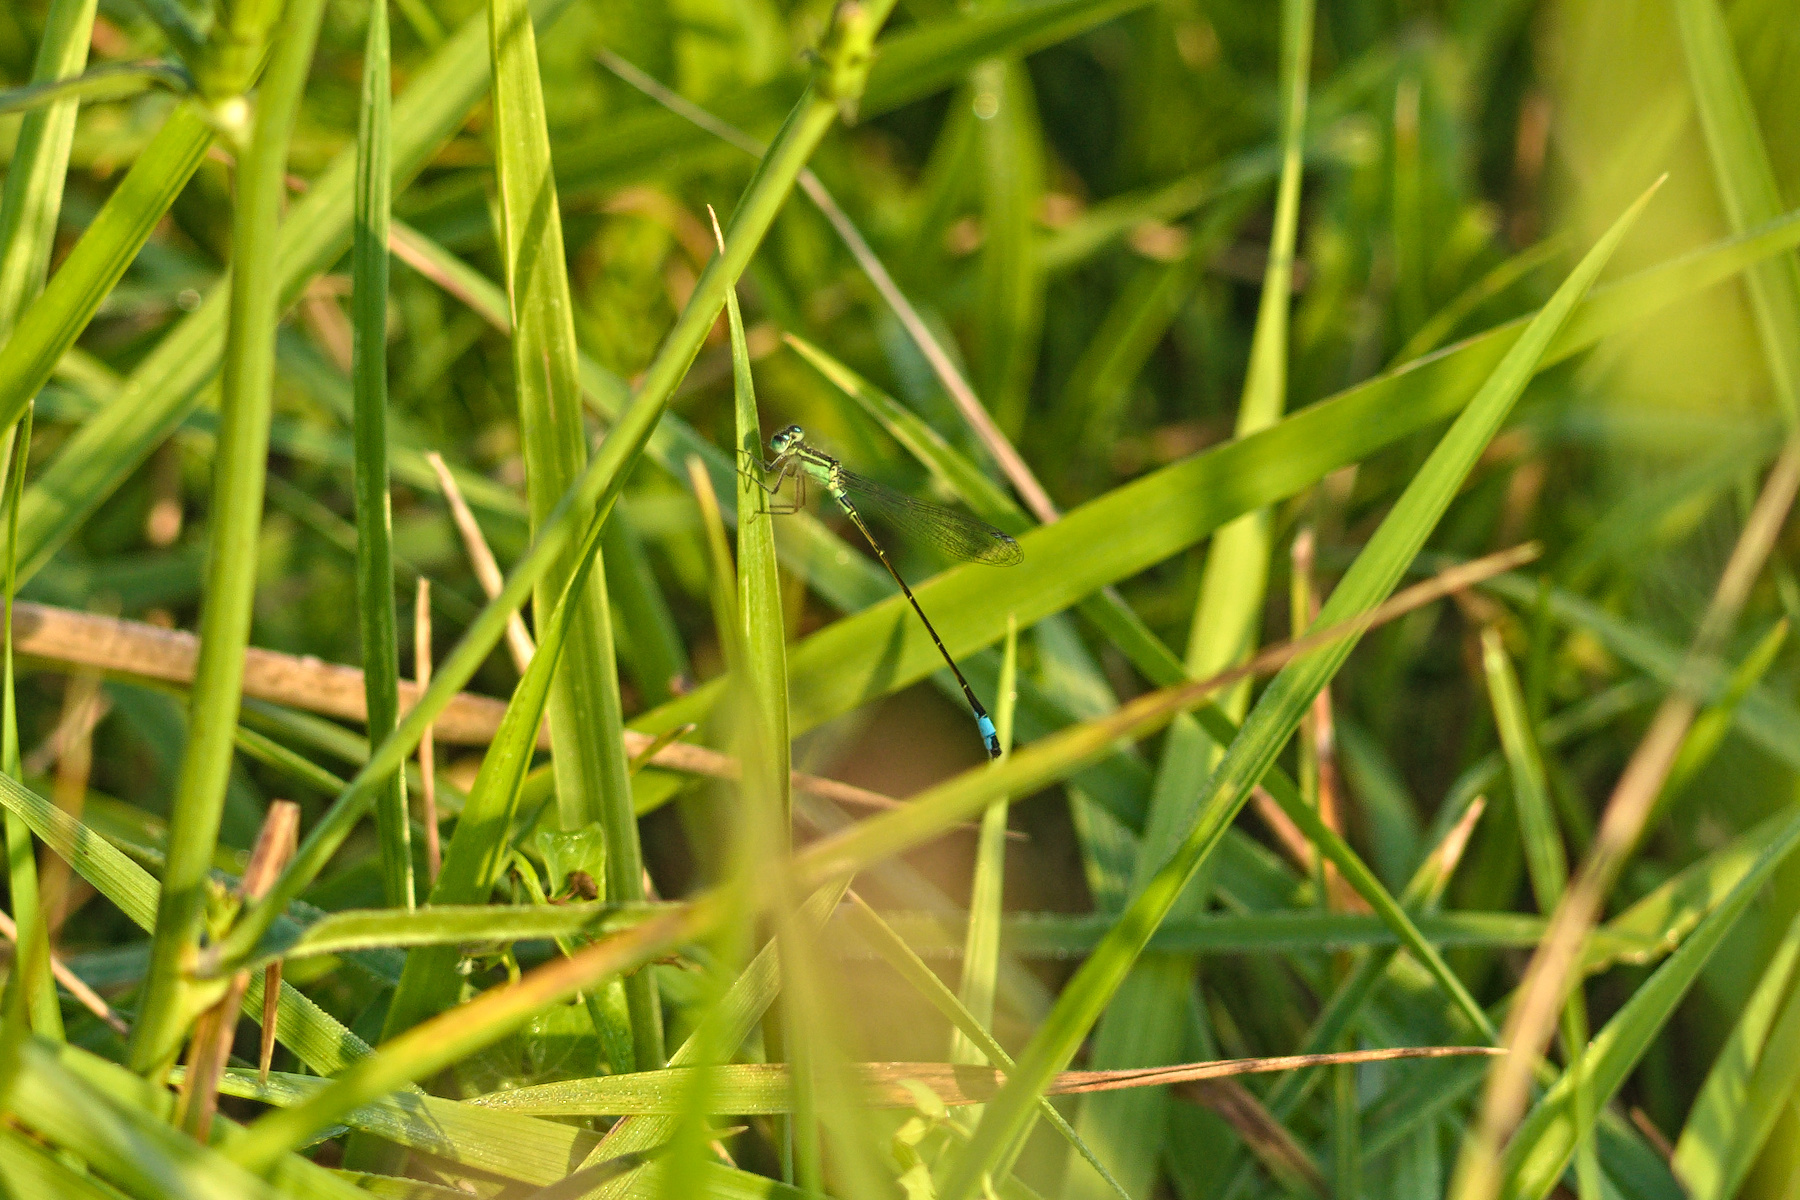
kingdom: Animalia
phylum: Arthropoda
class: Insecta
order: Odonata
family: Coenagrionidae
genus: Ischnura
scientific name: Ischnura elegans
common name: Blue-tailed damselfly
